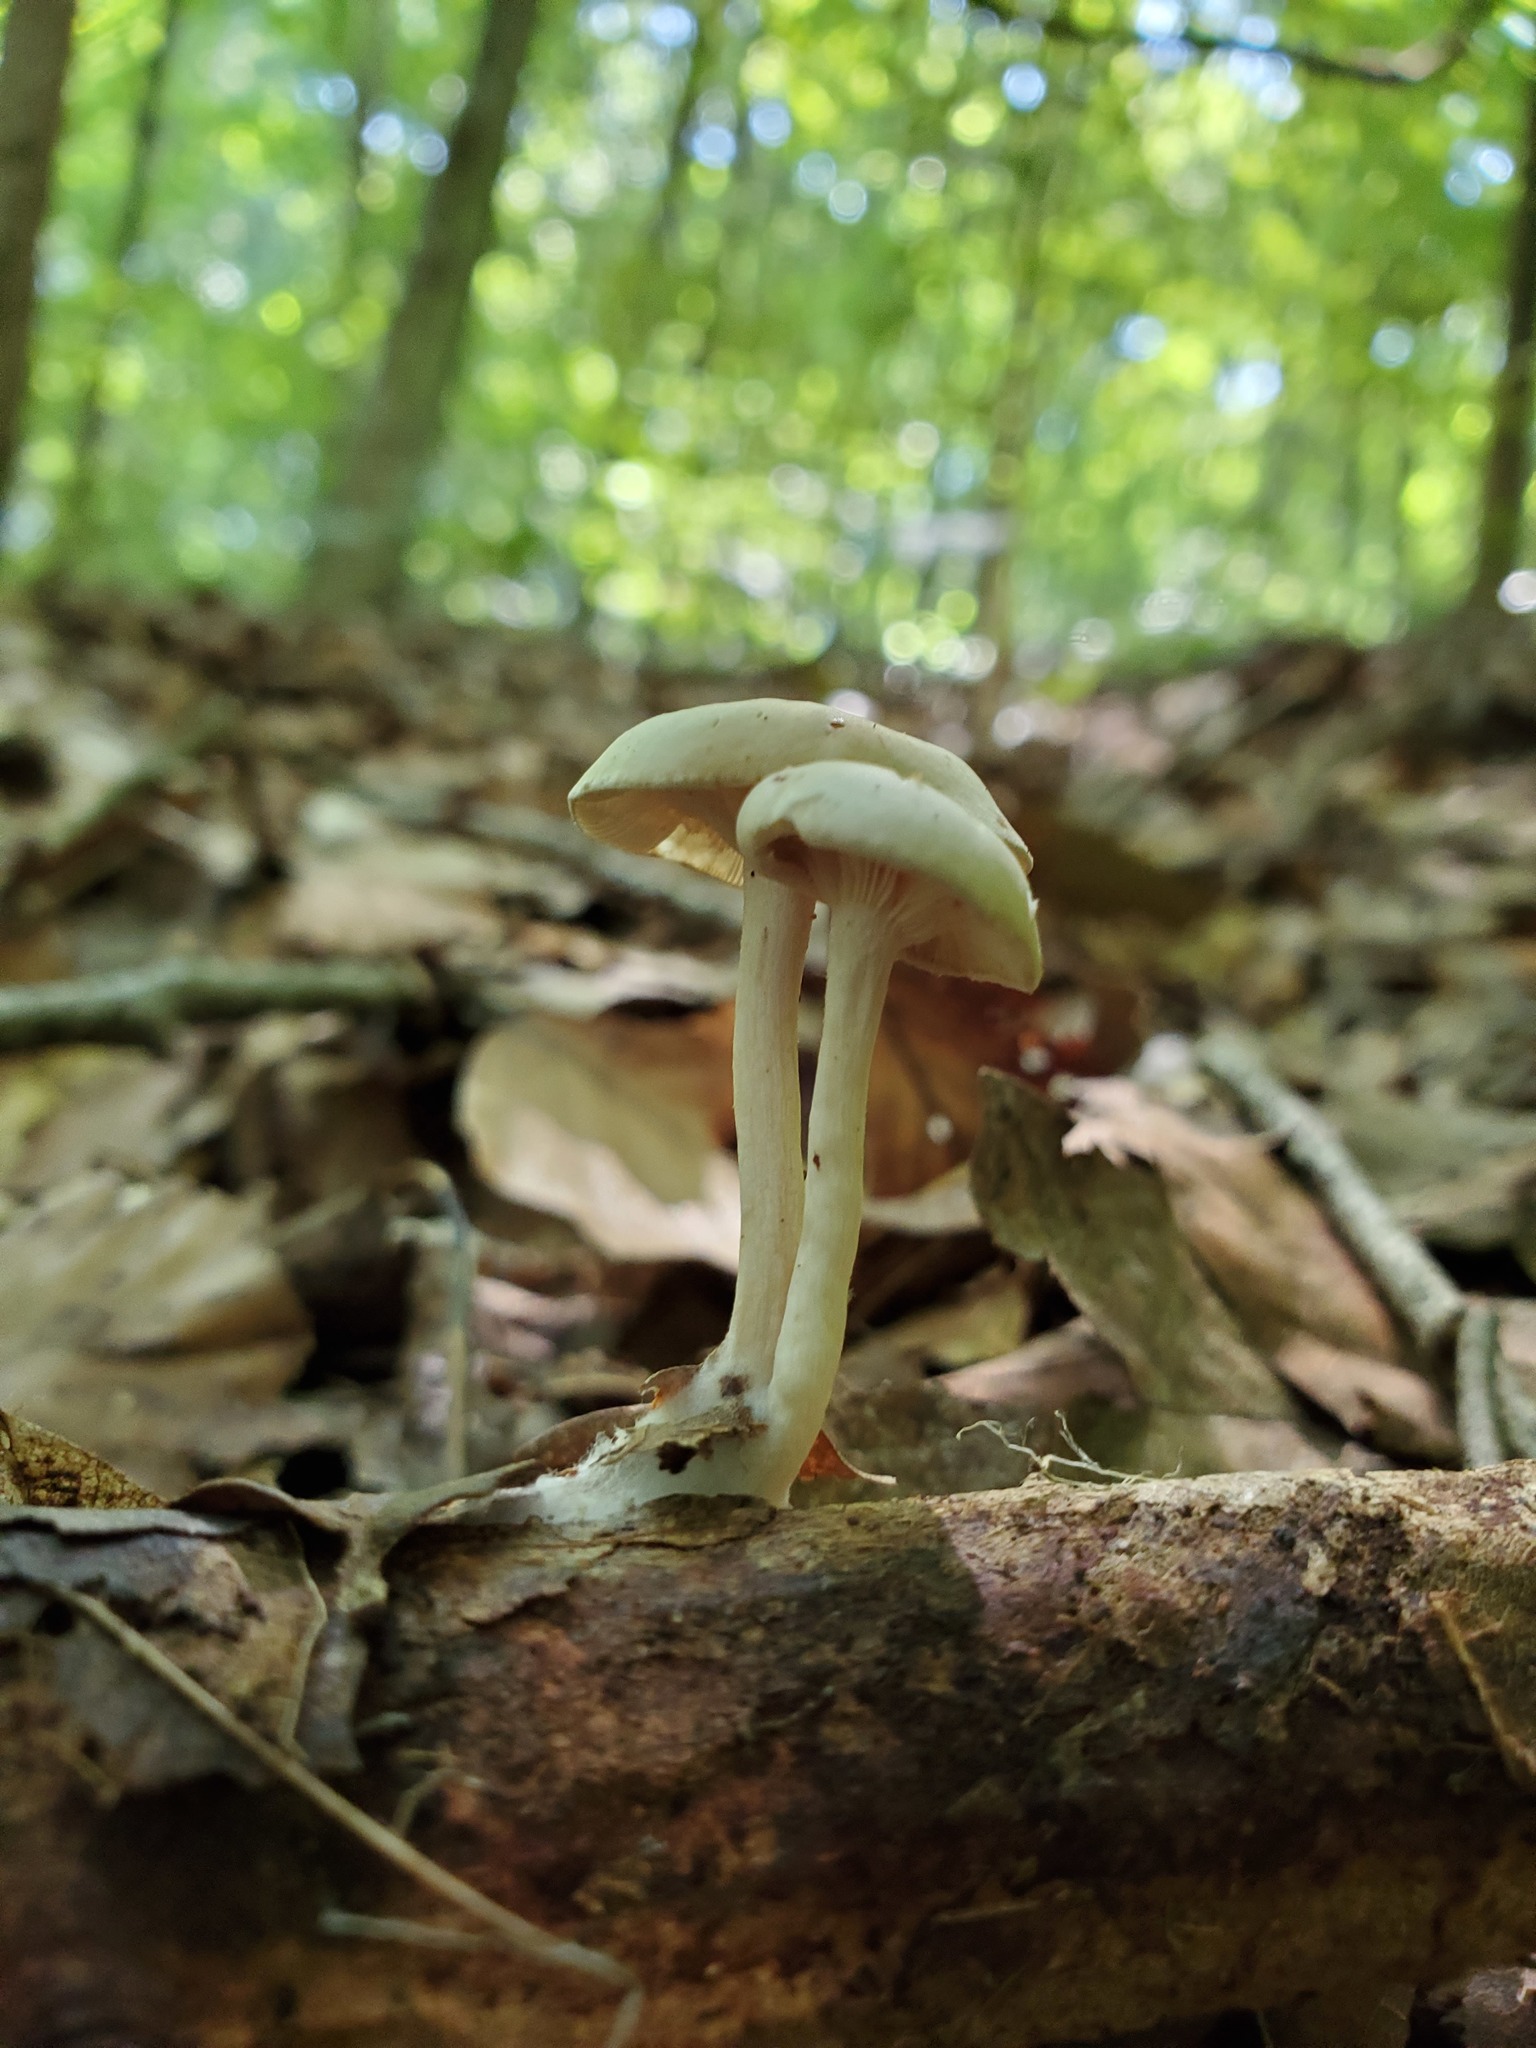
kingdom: Fungi
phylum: Basidiomycota
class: Agaricomycetes
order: Agaricales
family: Tricholomataceae
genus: Clitocybe
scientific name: Clitocybe americana
